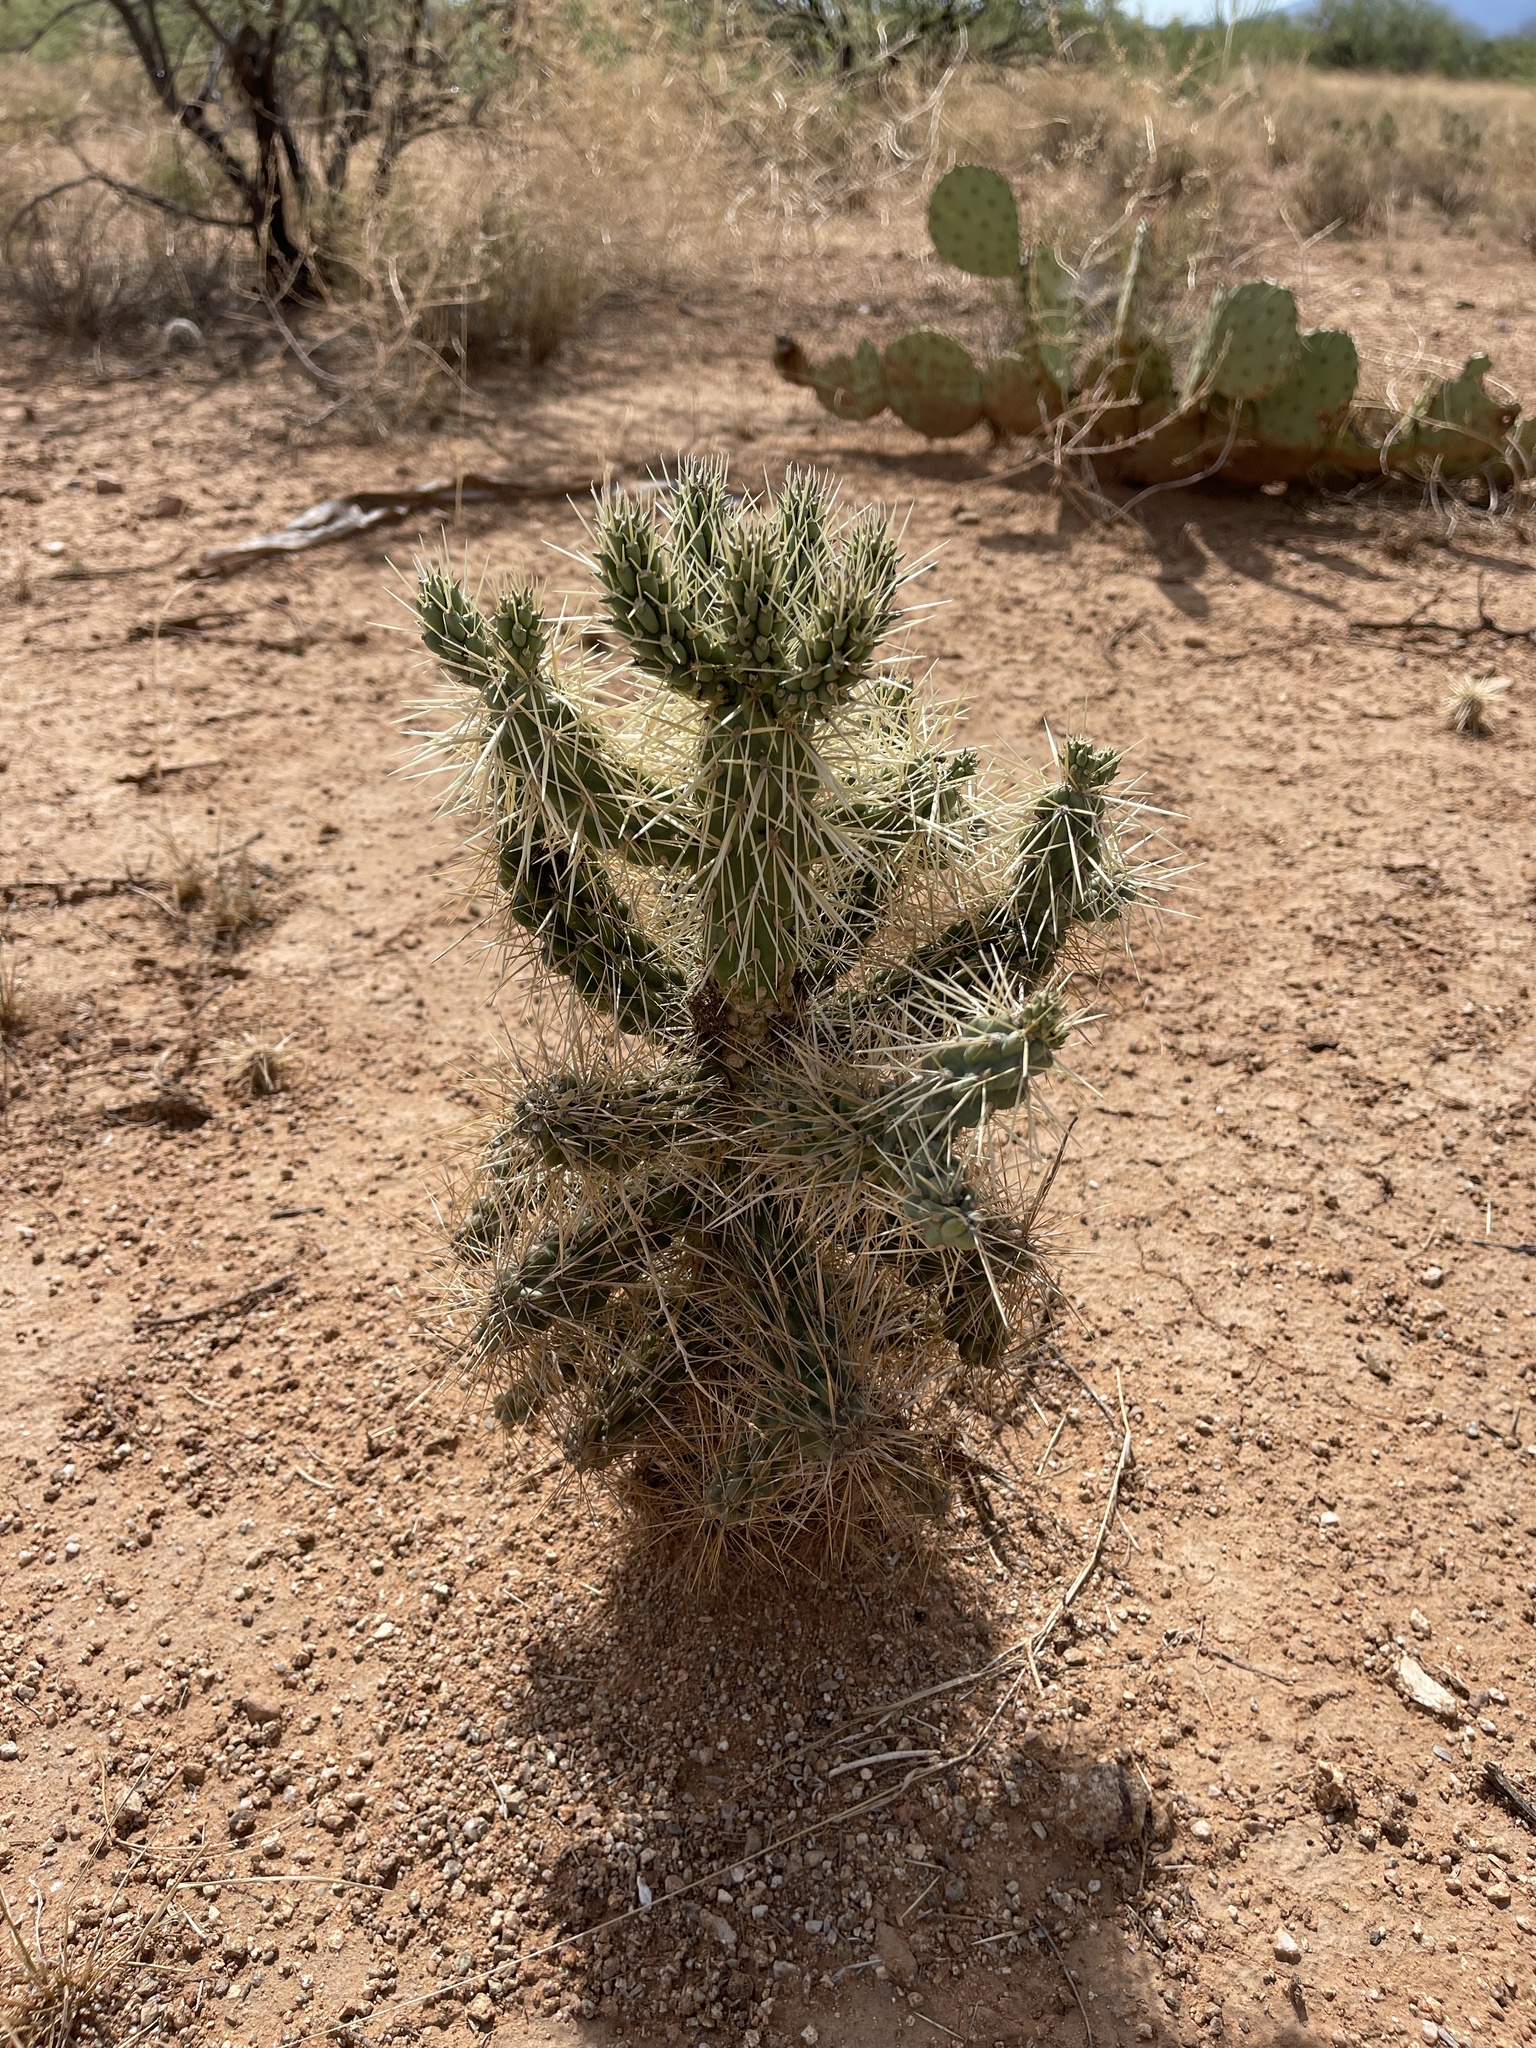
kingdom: Plantae
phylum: Tracheophyta
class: Magnoliopsida
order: Caryophyllales
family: Cactaceae
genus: Cylindropuntia
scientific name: Cylindropuntia fulgida
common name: Jumping cholla
